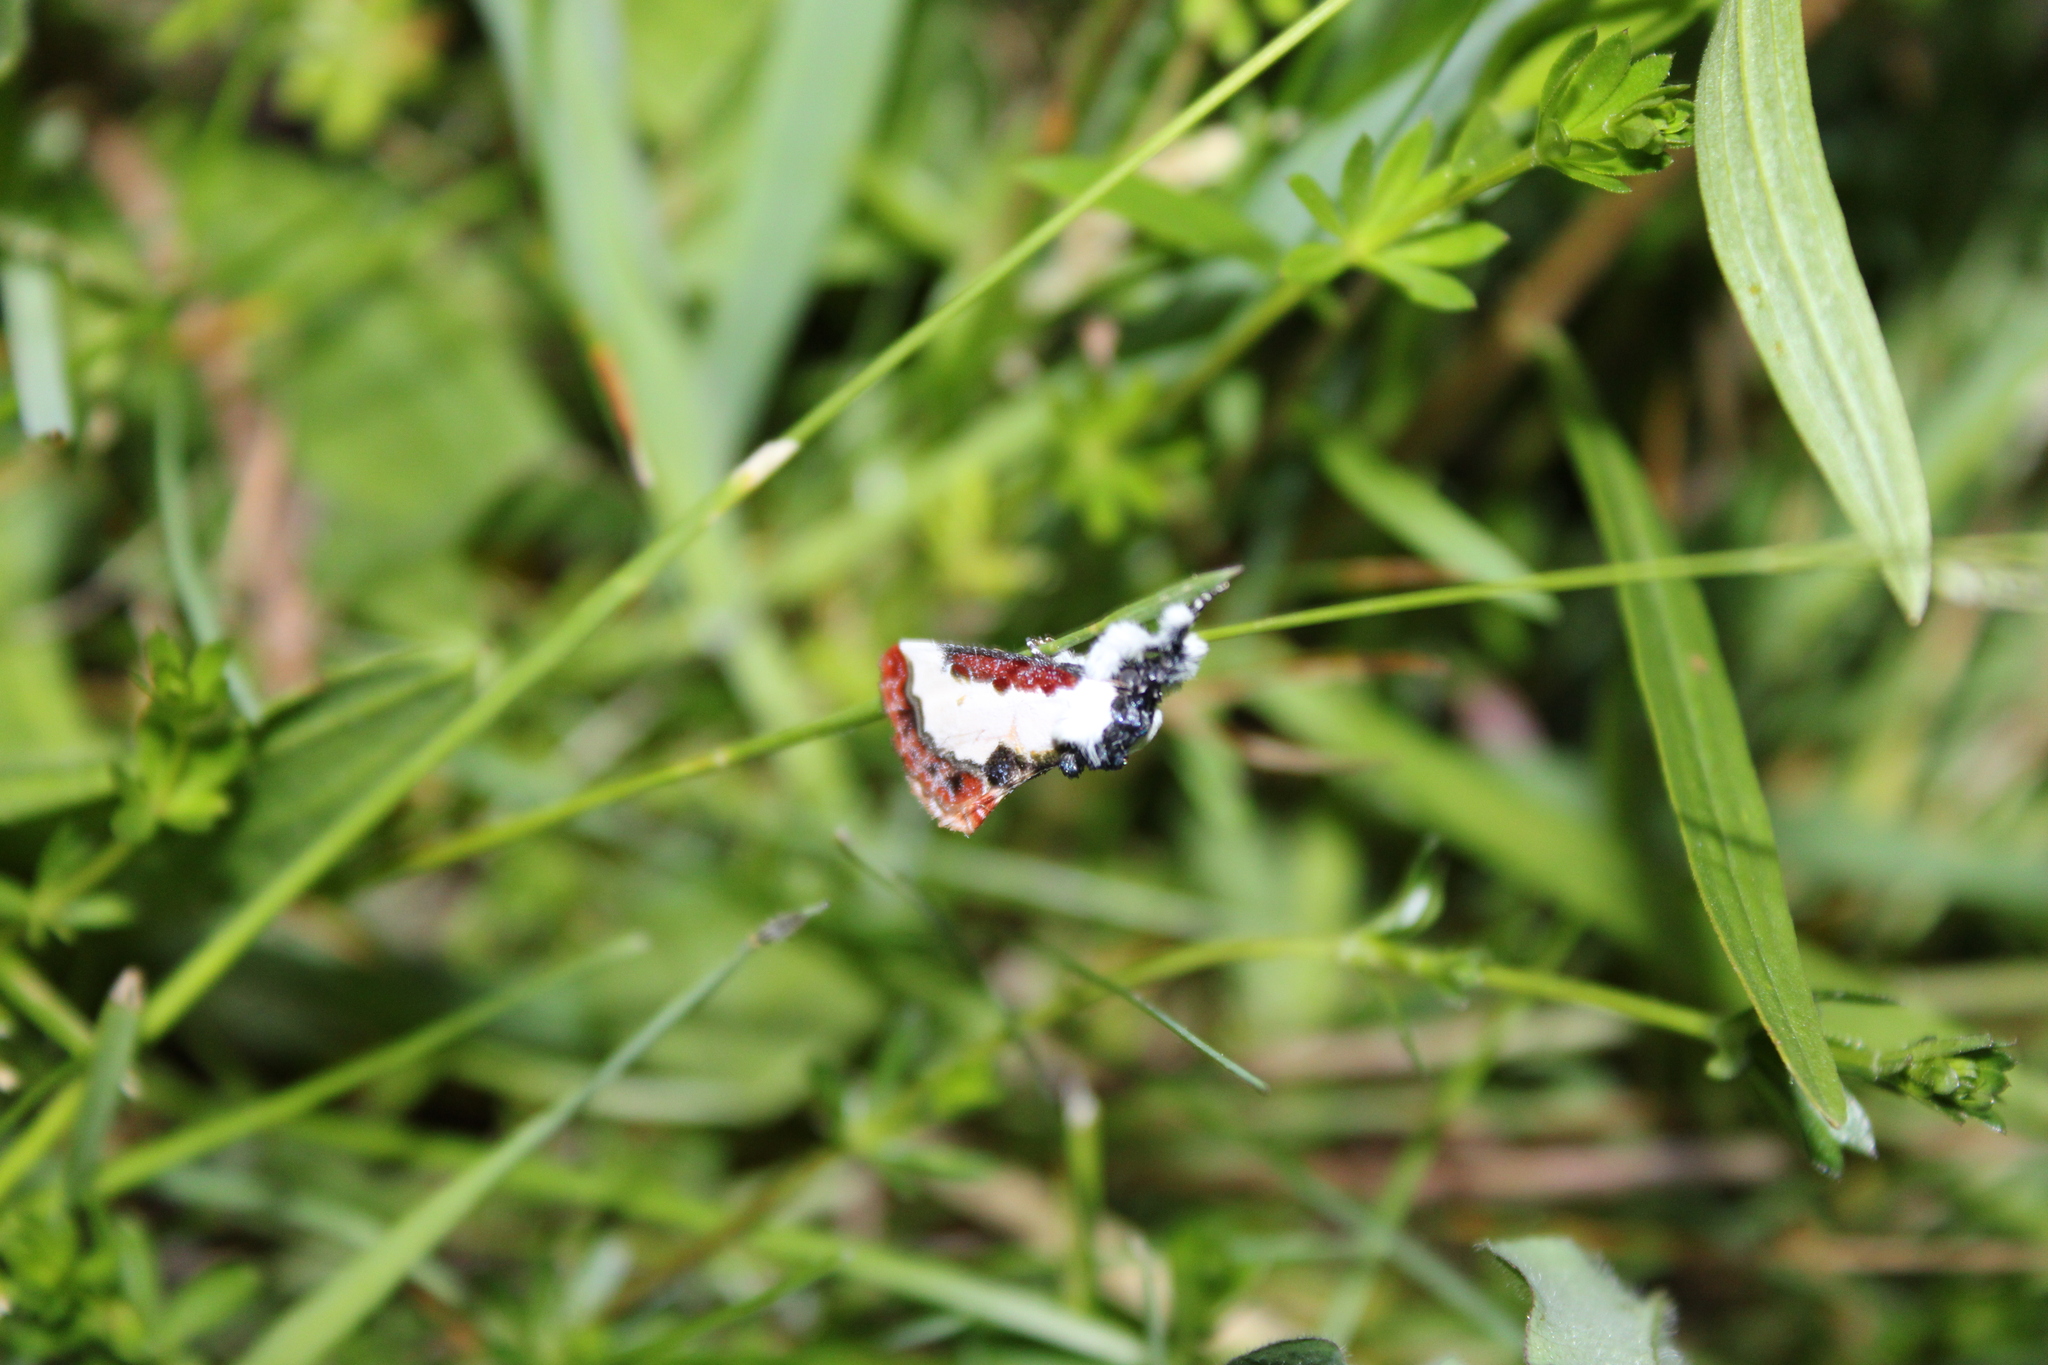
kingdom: Animalia
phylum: Arthropoda
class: Insecta
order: Lepidoptera
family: Noctuidae
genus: Eudryas
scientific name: Eudryas unio
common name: Pearly wood-nymph
